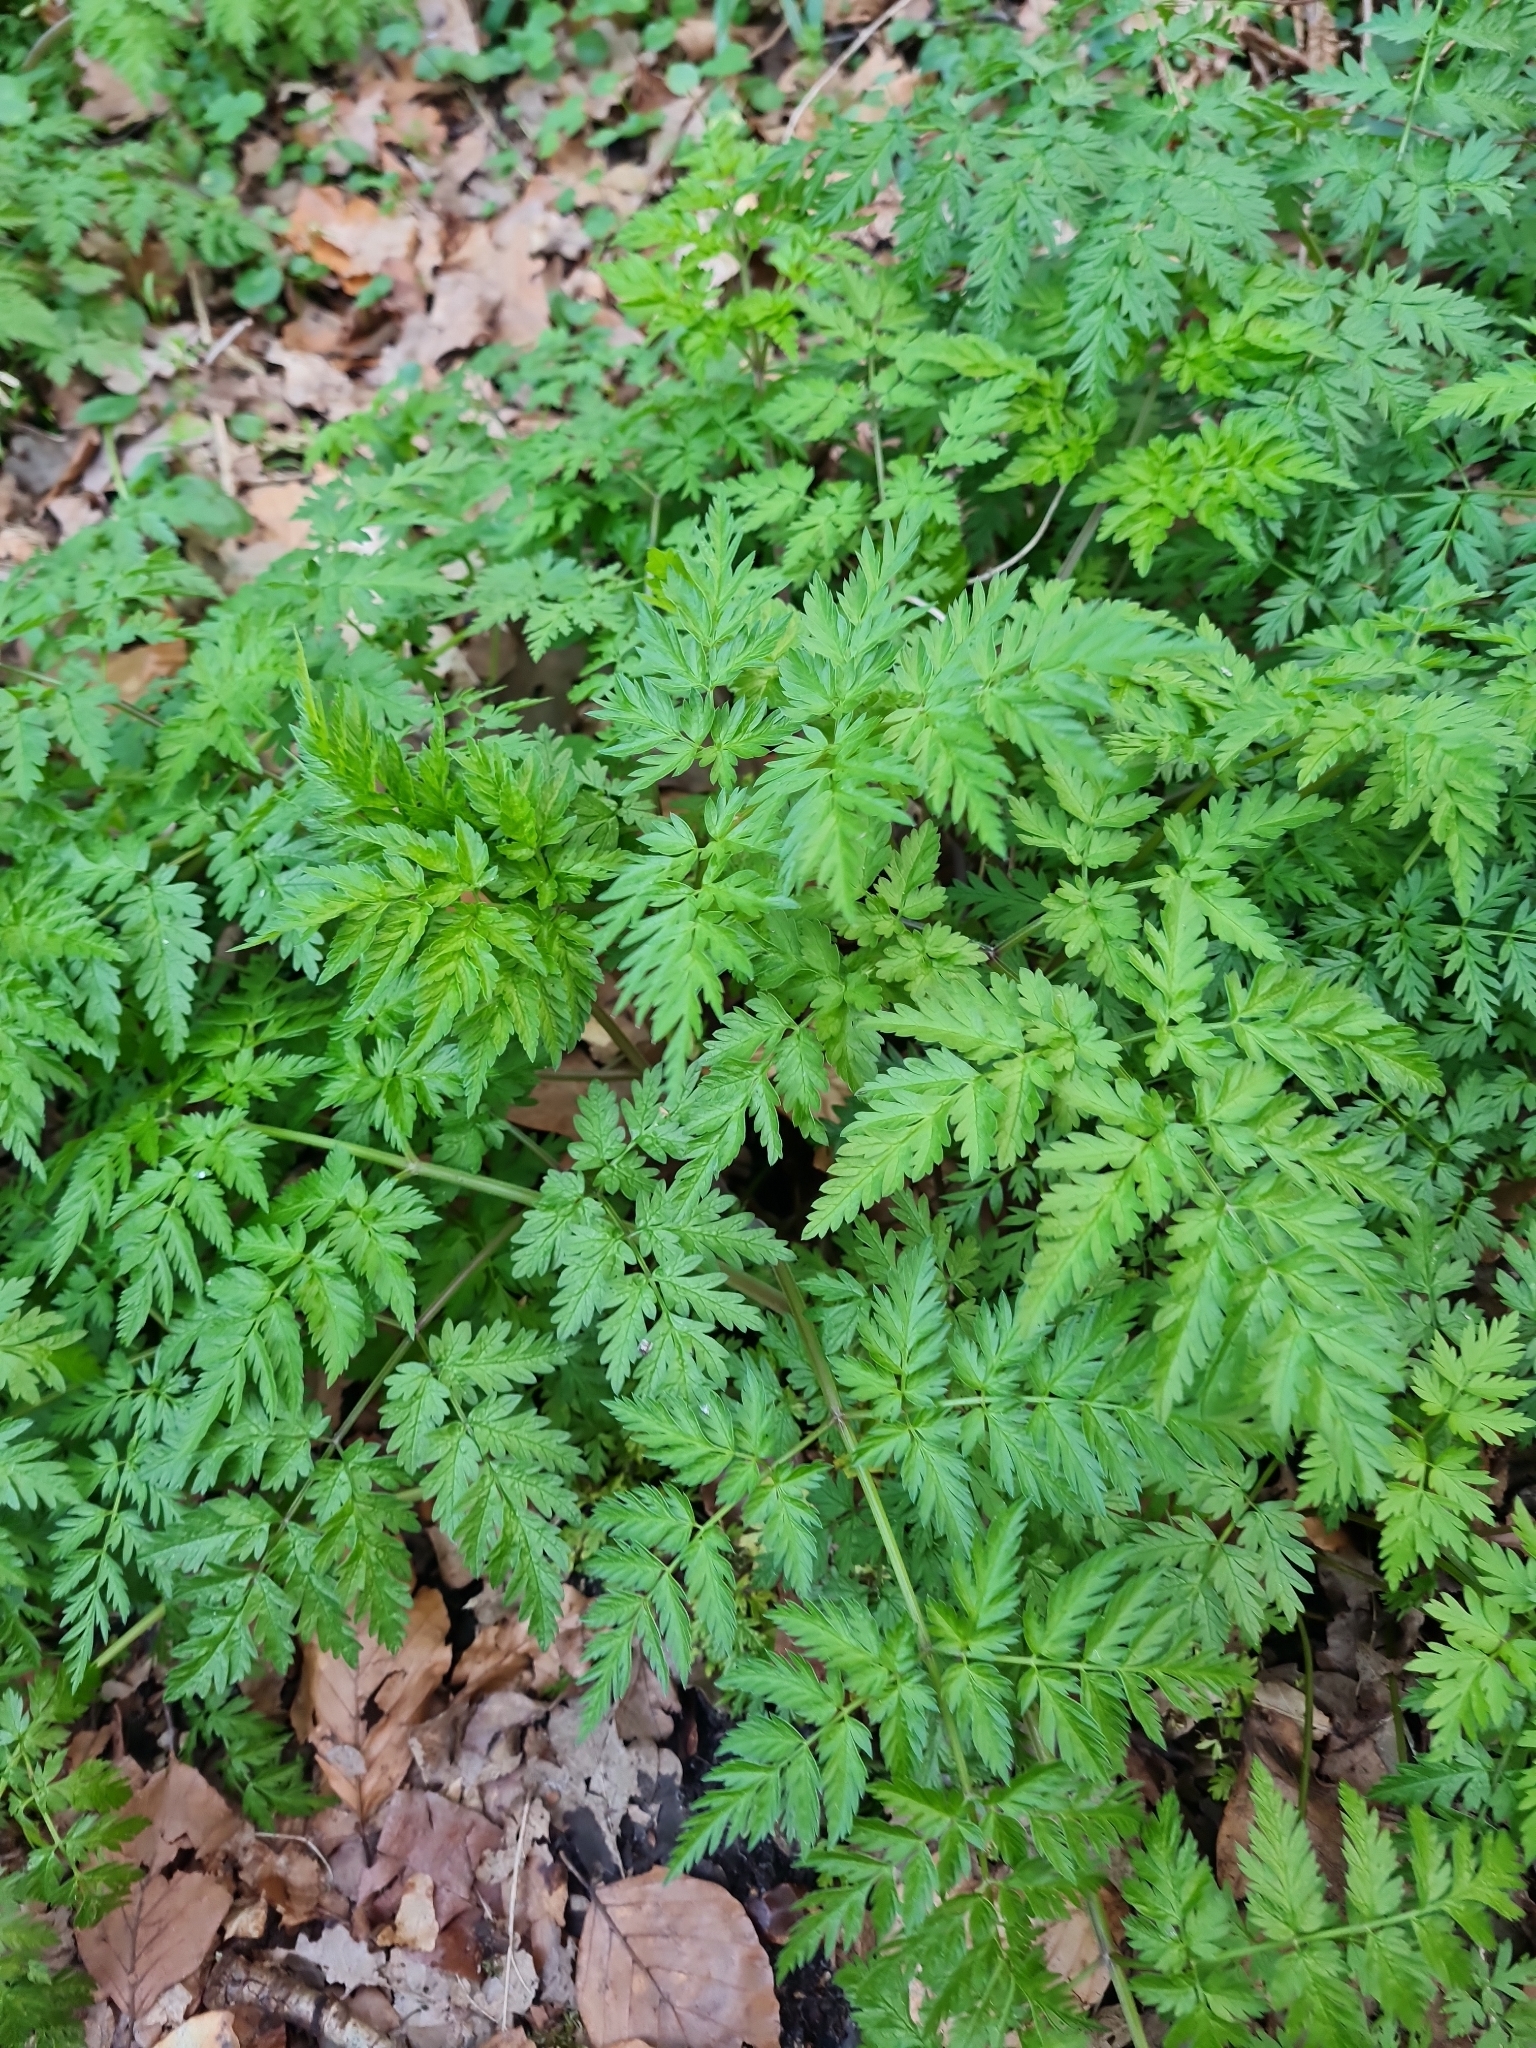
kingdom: Plantae
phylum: Tracheophyta
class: Magnoliopsida
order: Apiales
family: Apiaceae
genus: Anthriscus
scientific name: Anthriscus sylvestris
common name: Cow parsley
